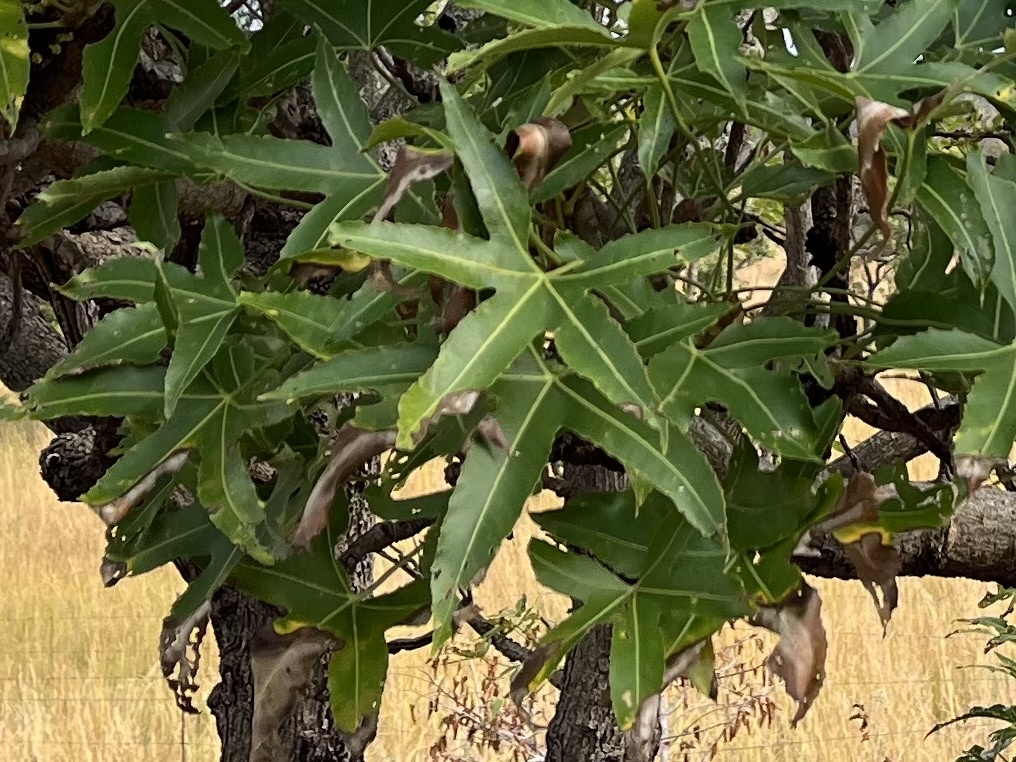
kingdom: Plantae
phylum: Tracheophyta
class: Magnoliopsida
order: Apiales
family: Araliaceae
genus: Cussonia
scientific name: Cussonia natalensis
